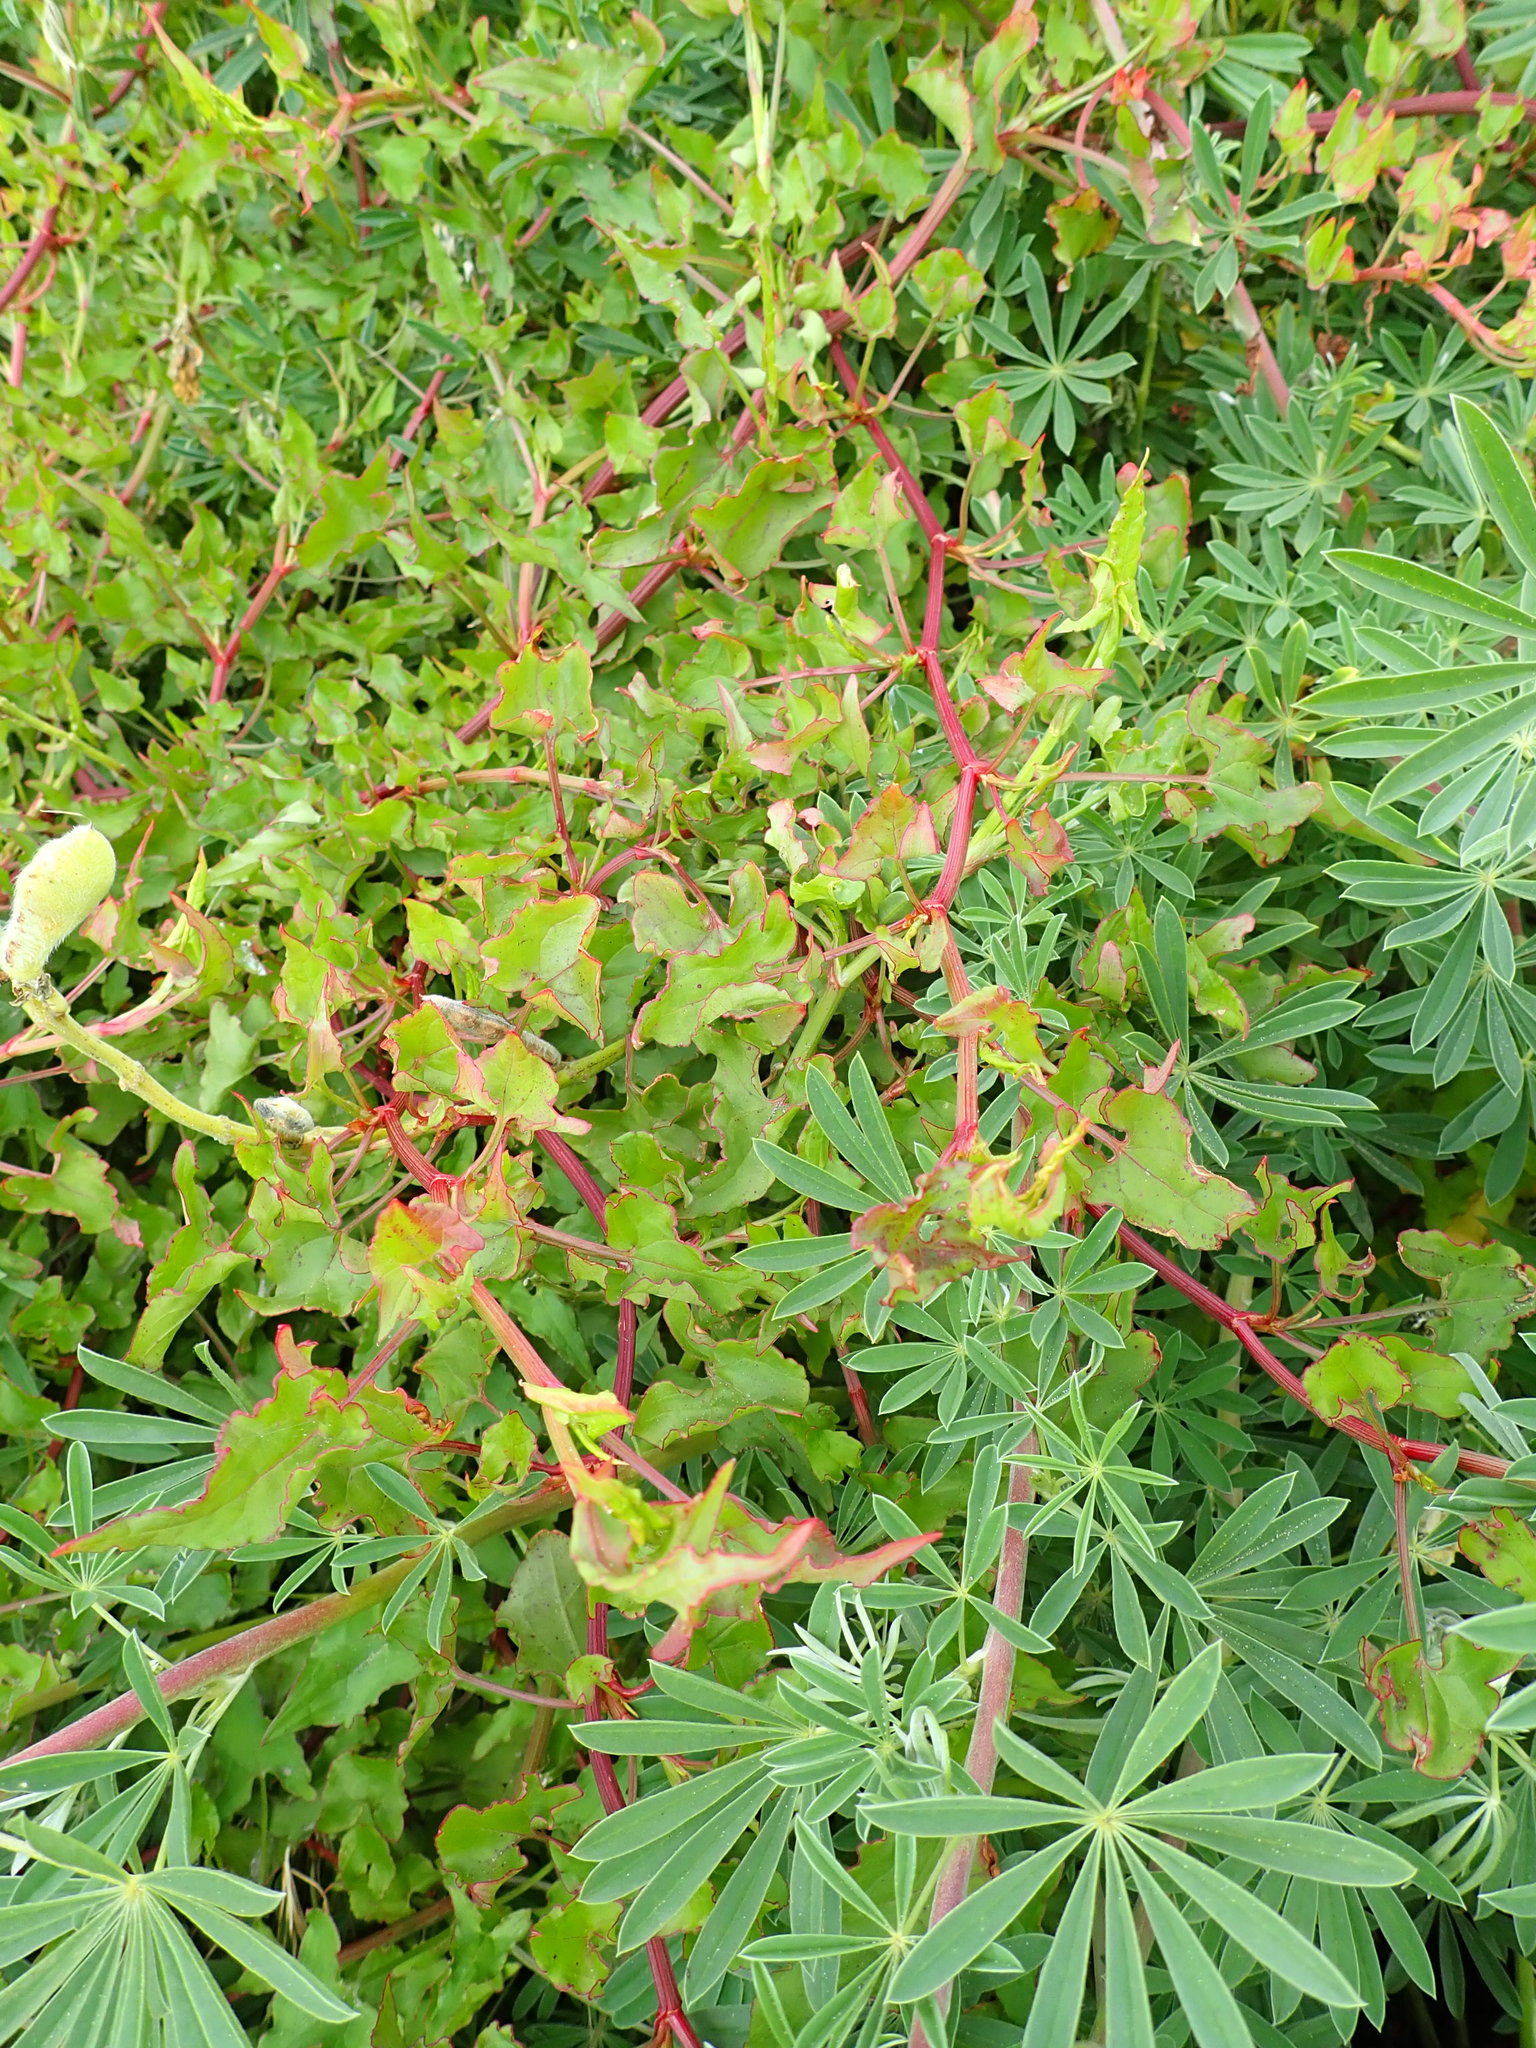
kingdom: Plantae
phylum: Tracheophyta
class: Magnoliopsida
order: Caryophyllales
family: Polygonaceae
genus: Rumex
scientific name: Rumex sagittatus
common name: Climbing dock
